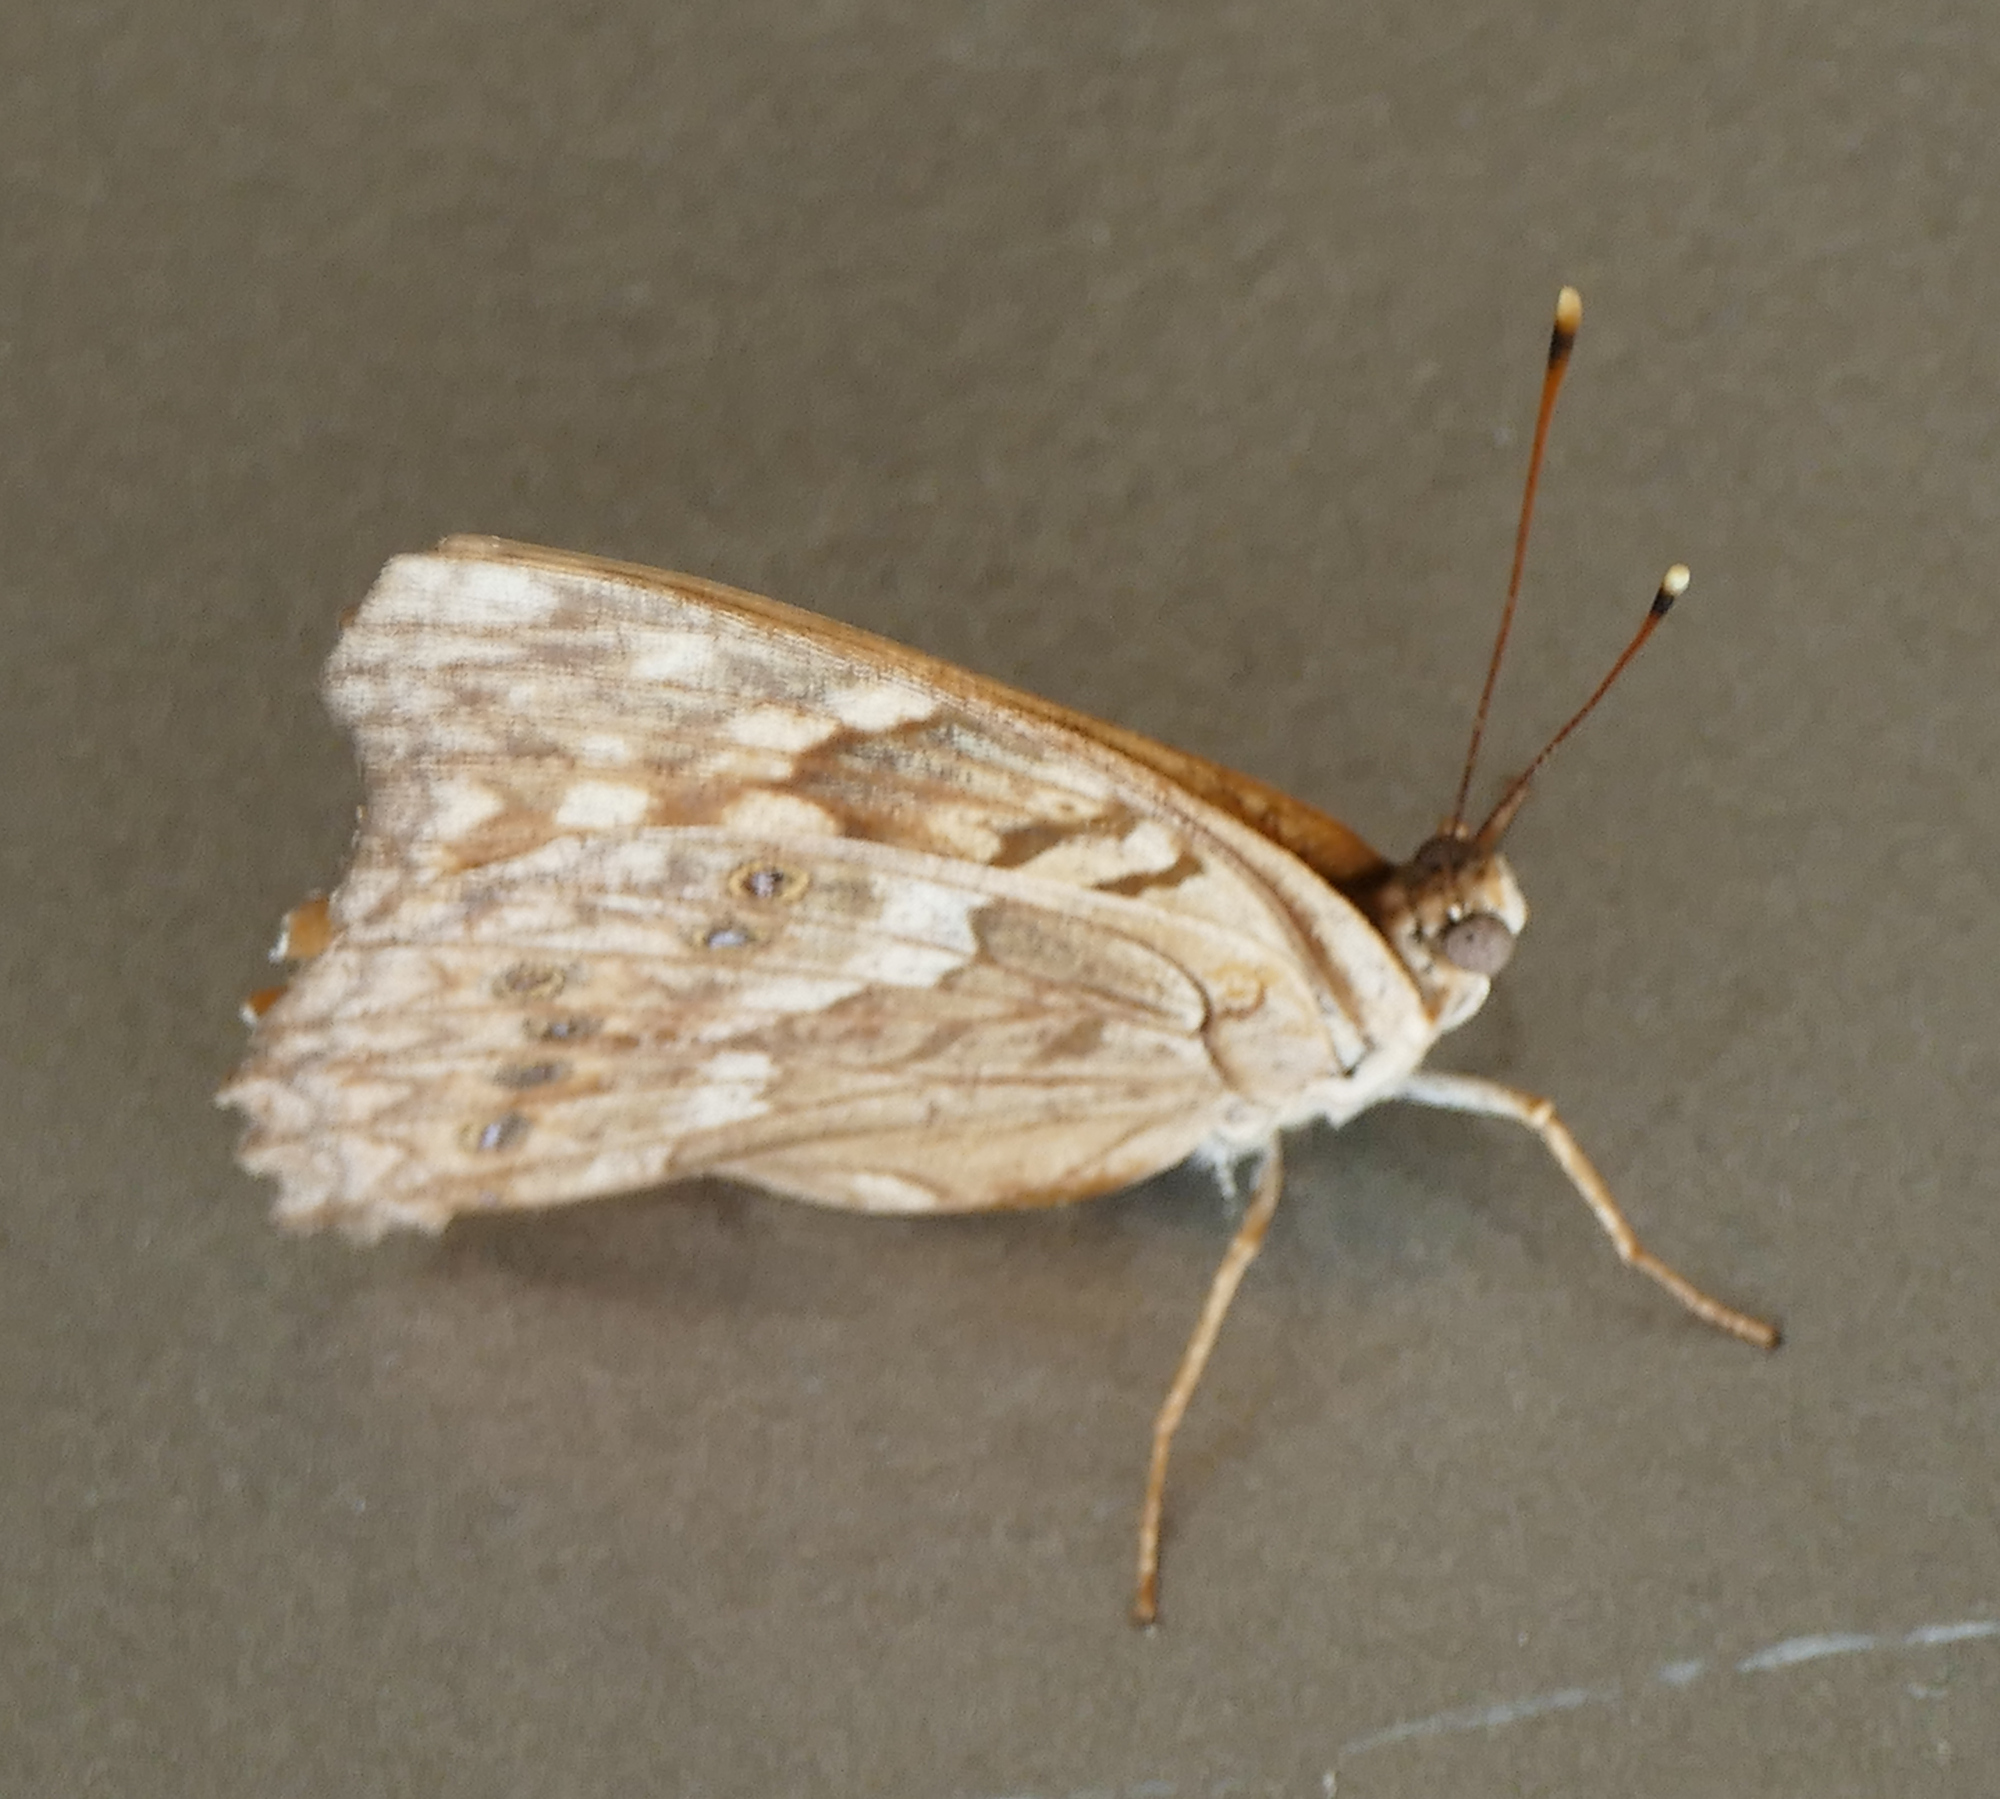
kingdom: Animalia
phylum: Arthropoda
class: Insecta
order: Lepidoptera
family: Nymphalidae
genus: Asterocampa
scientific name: Asterocampa clyton
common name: Tawny emperor
